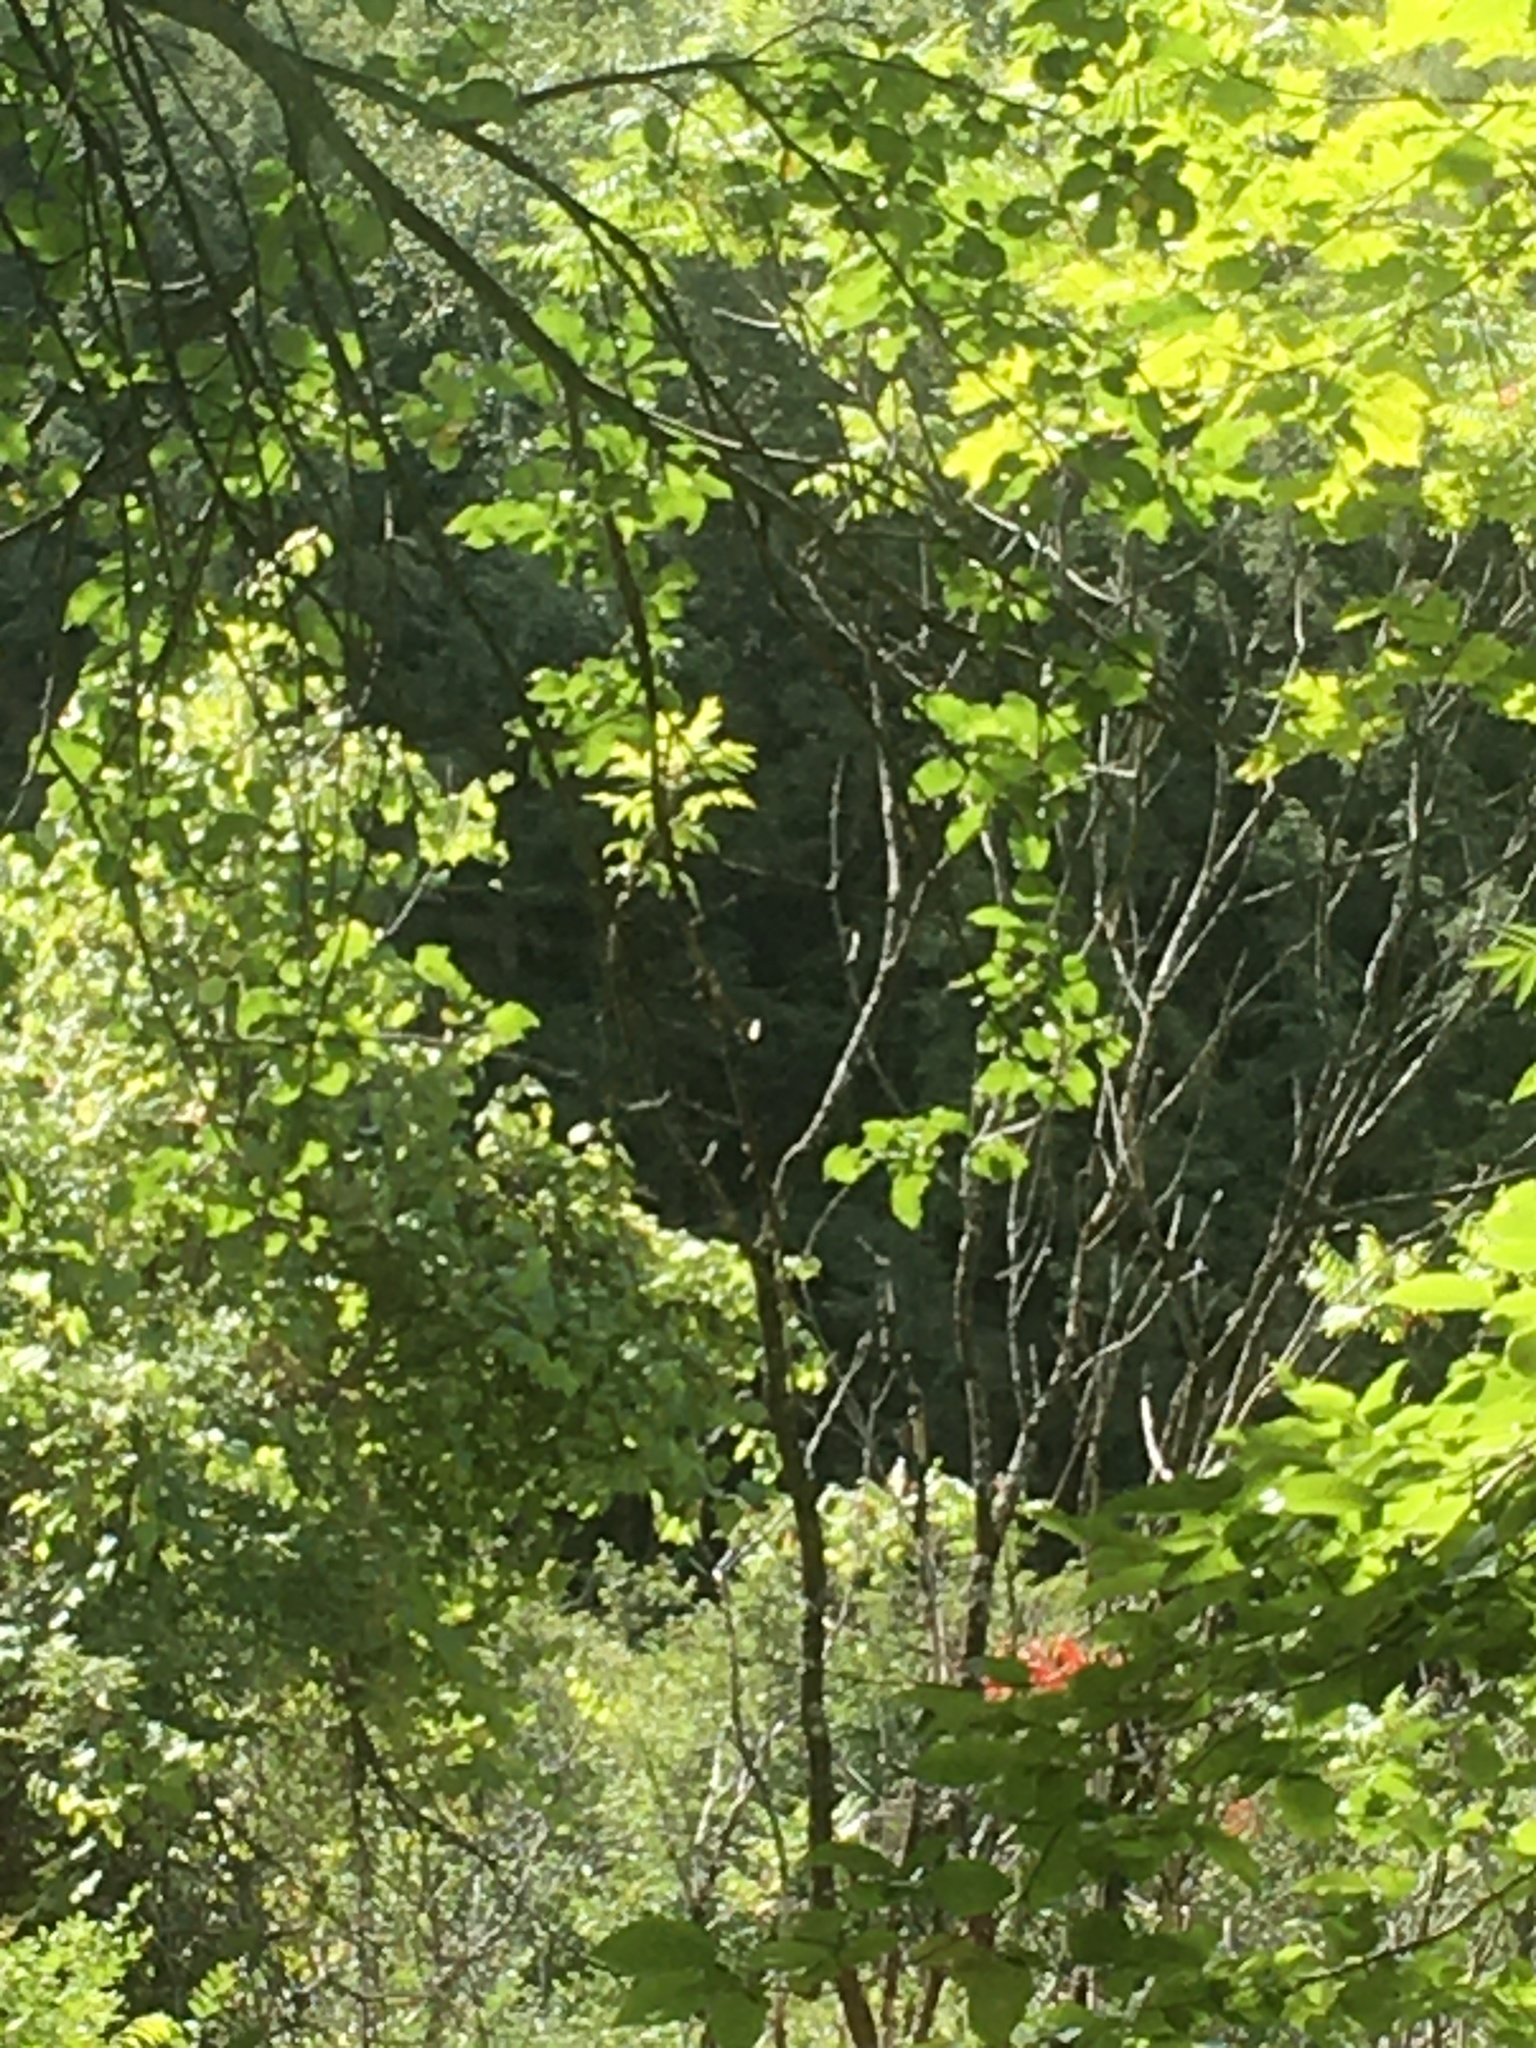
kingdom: Plantae
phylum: Tracheophyta
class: Magnoliopsida
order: Sapindales
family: Anacardiaceae
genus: Rhus
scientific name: Rhus typhina
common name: Staghorn sumac
